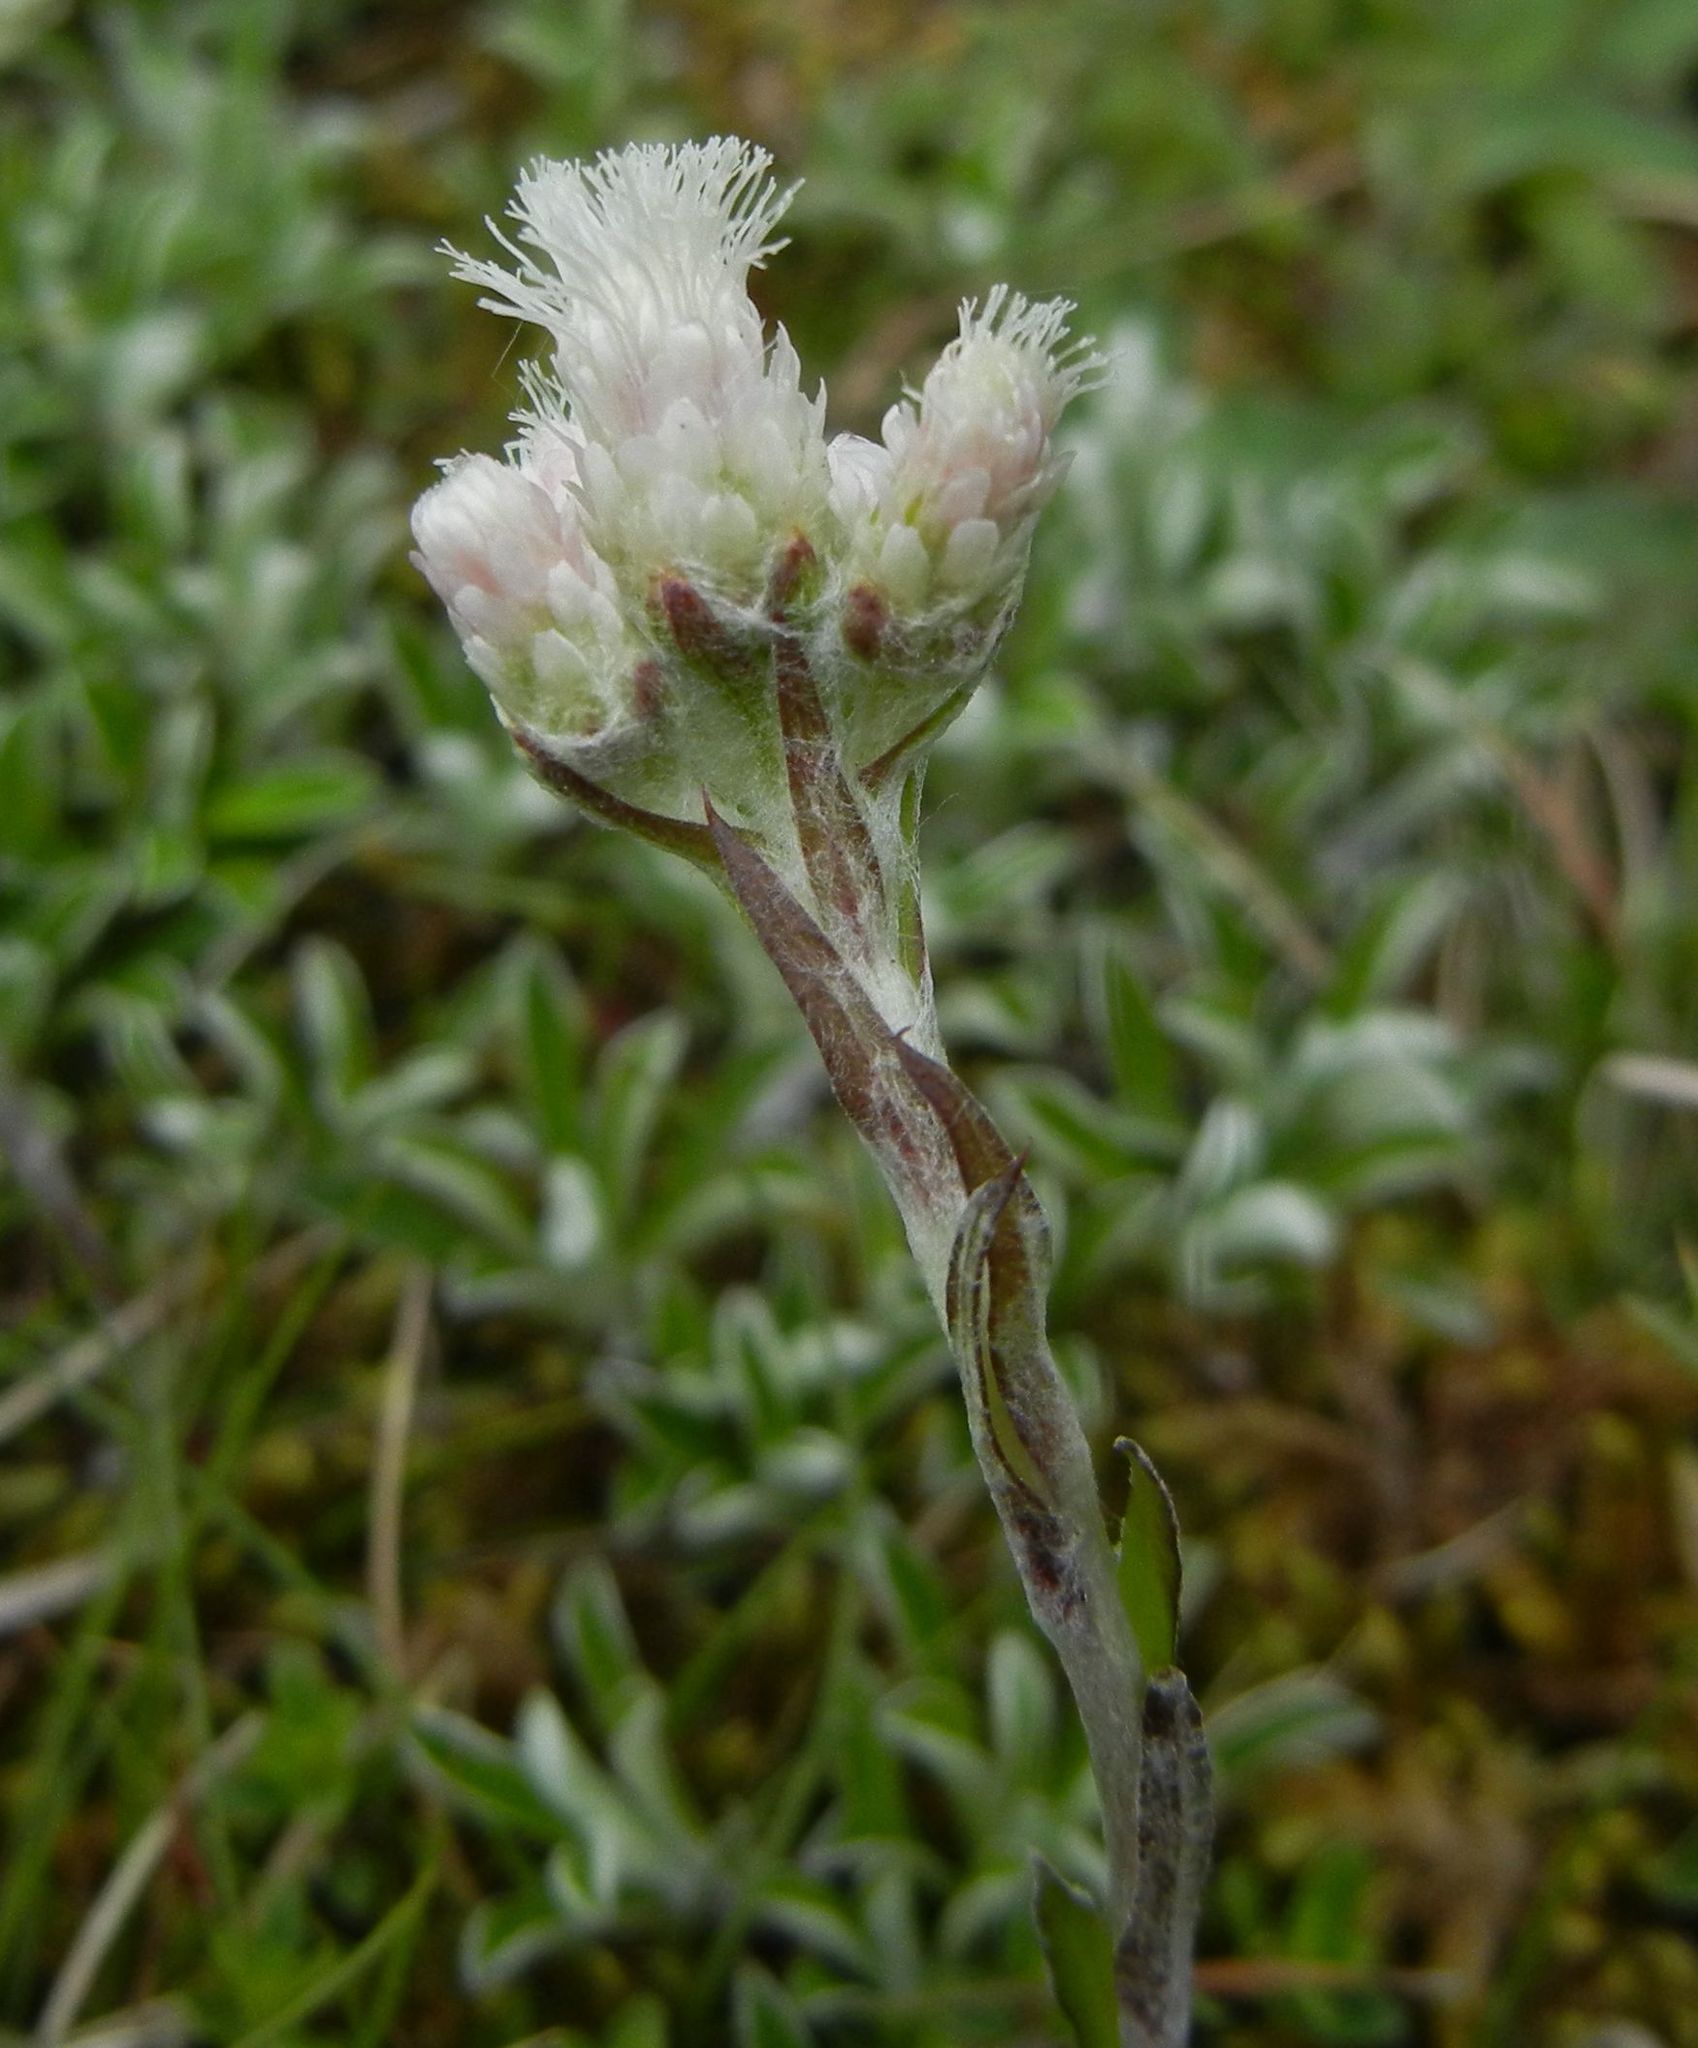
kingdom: Plantae
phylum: Tracheophyta
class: Magnoliopsida
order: Asterales
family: Asteraceae
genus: Antennaria
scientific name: Antennaria dioica
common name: Mountain everlasting
